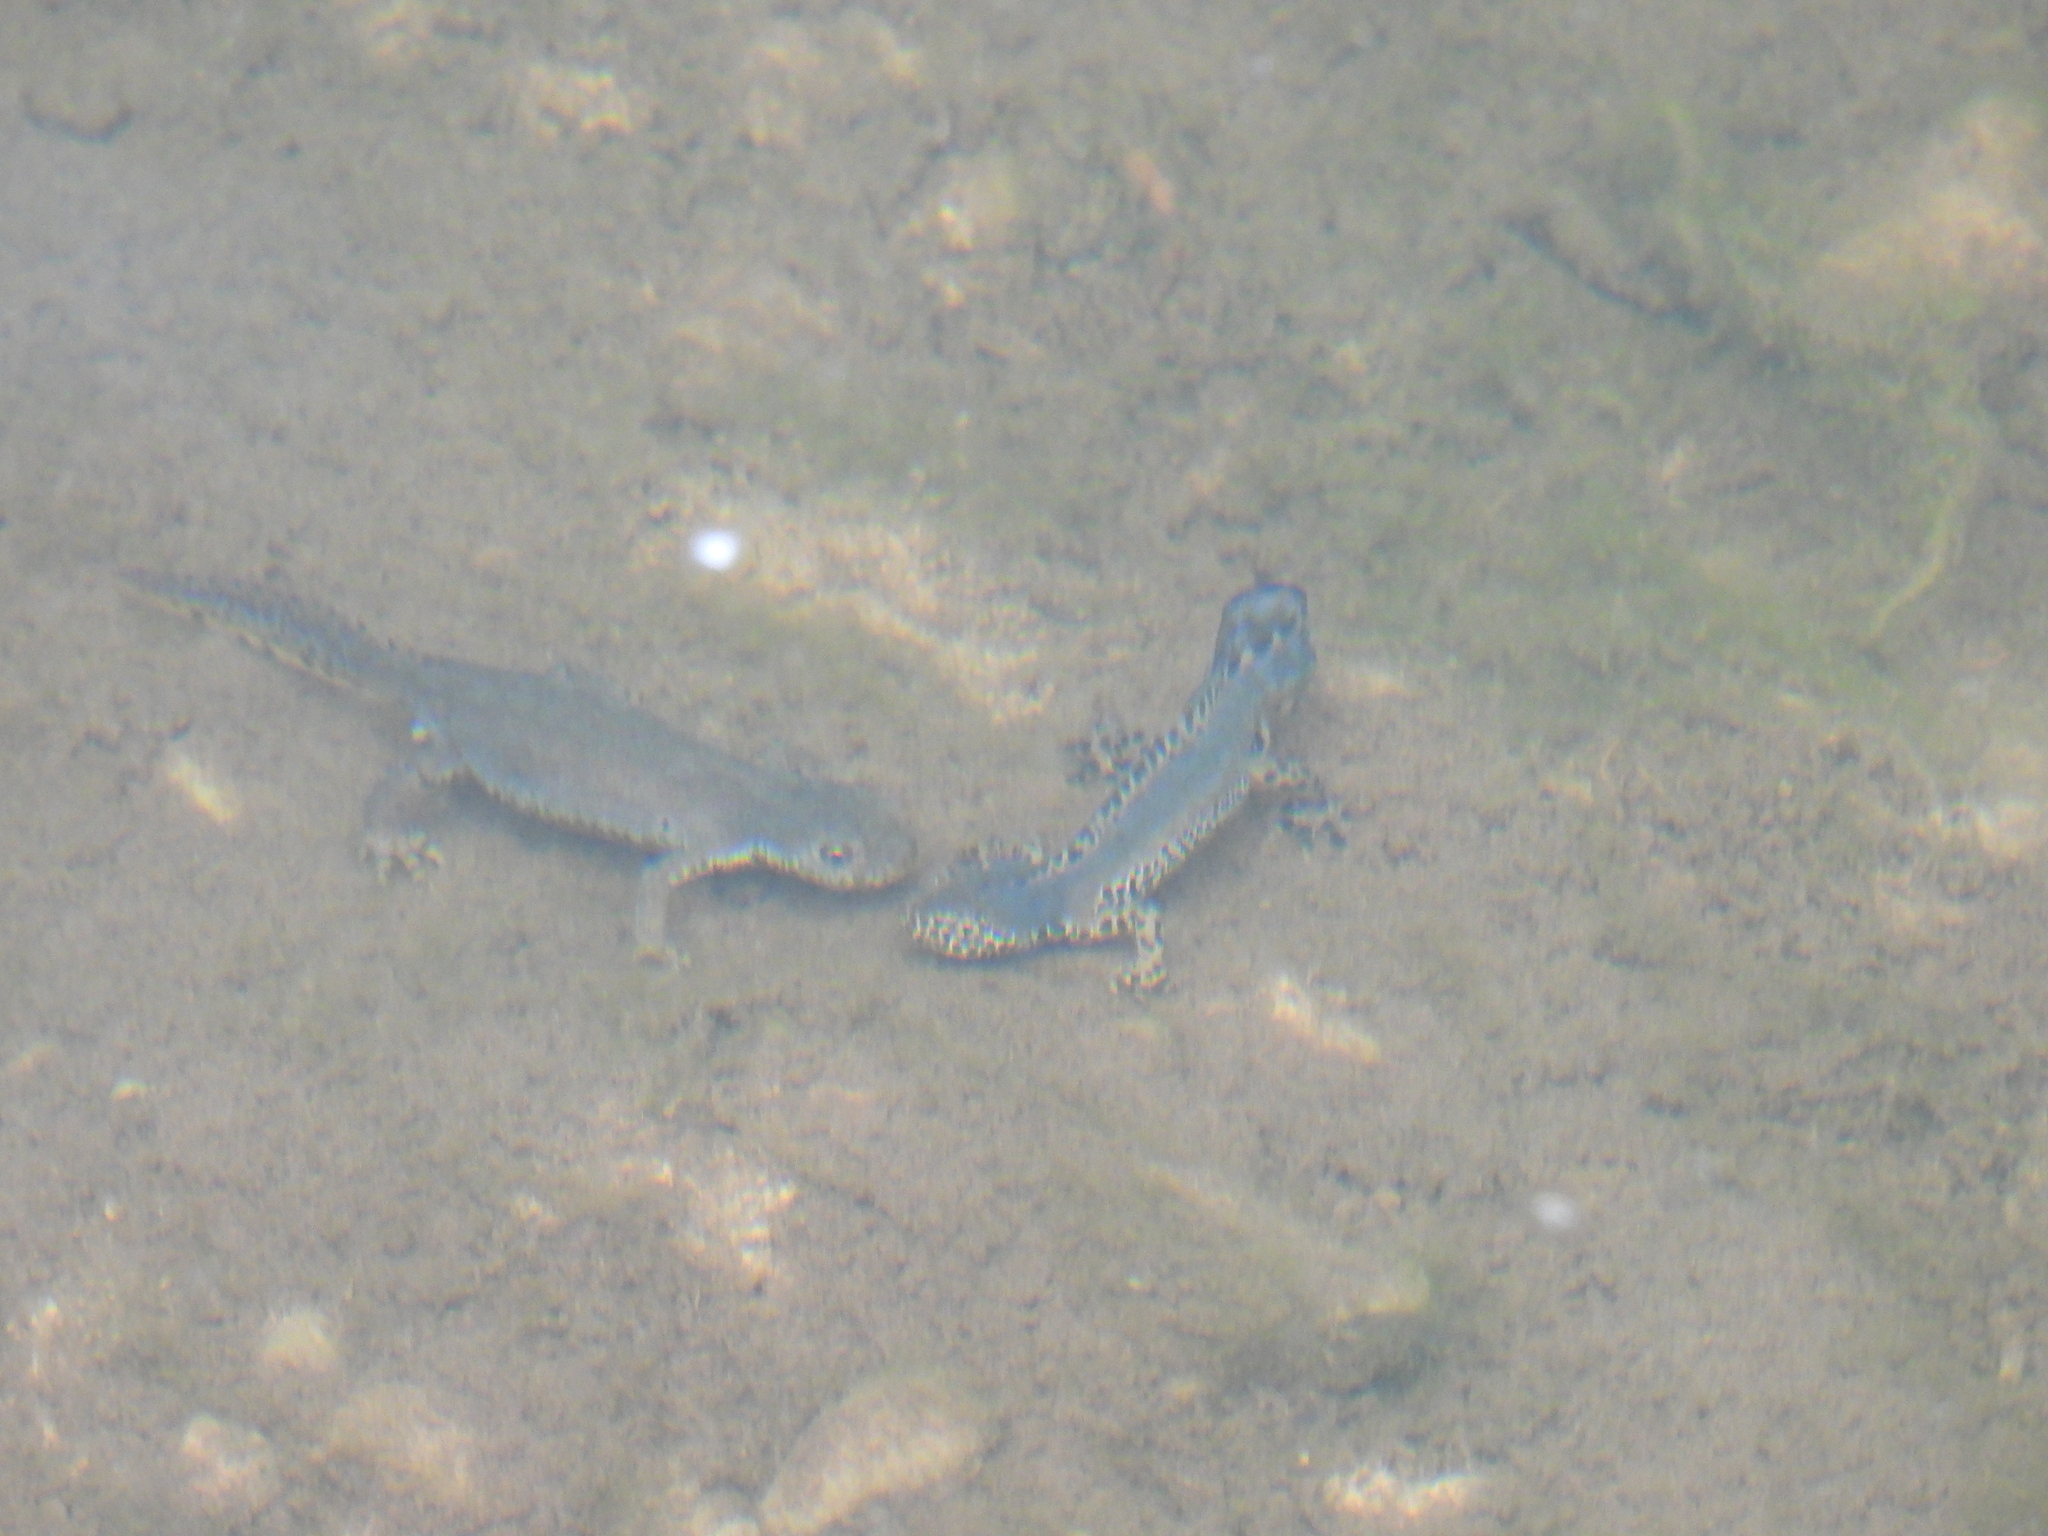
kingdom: Animalia
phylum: Chordata
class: Amphibia
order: Caudata
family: Salamandridae
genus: Ichthyosaura
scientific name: Ichthyosaura alpestris
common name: Alpine newt
